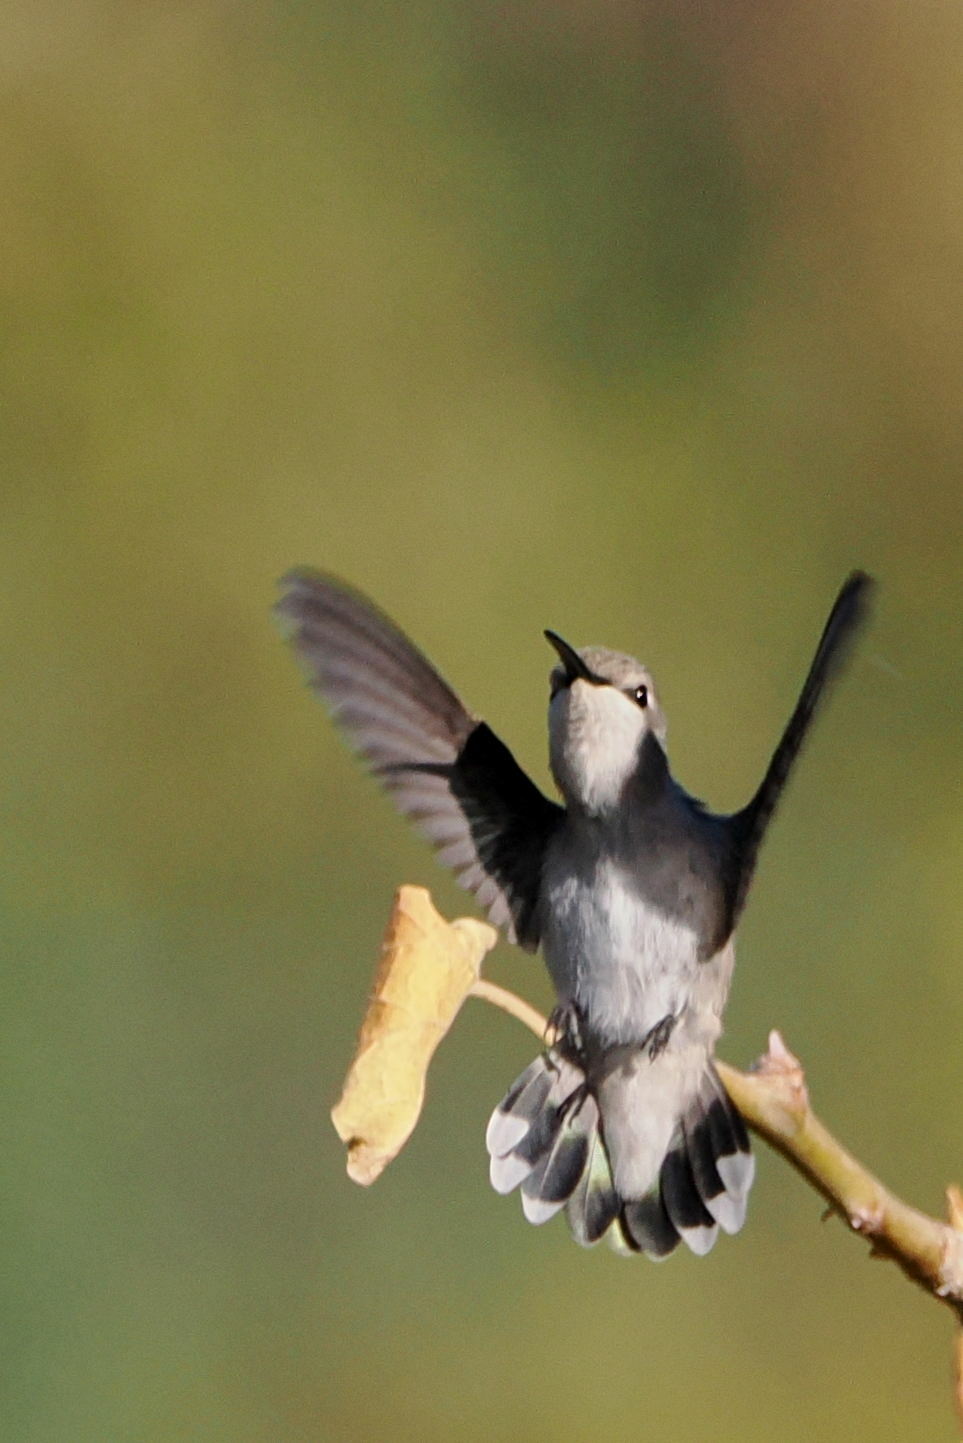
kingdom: Animalia
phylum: Chordata
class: Aves
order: Apodiformes
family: Trochilidae
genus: Calypte
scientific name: Calypte costae
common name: Costa's hummingbird
